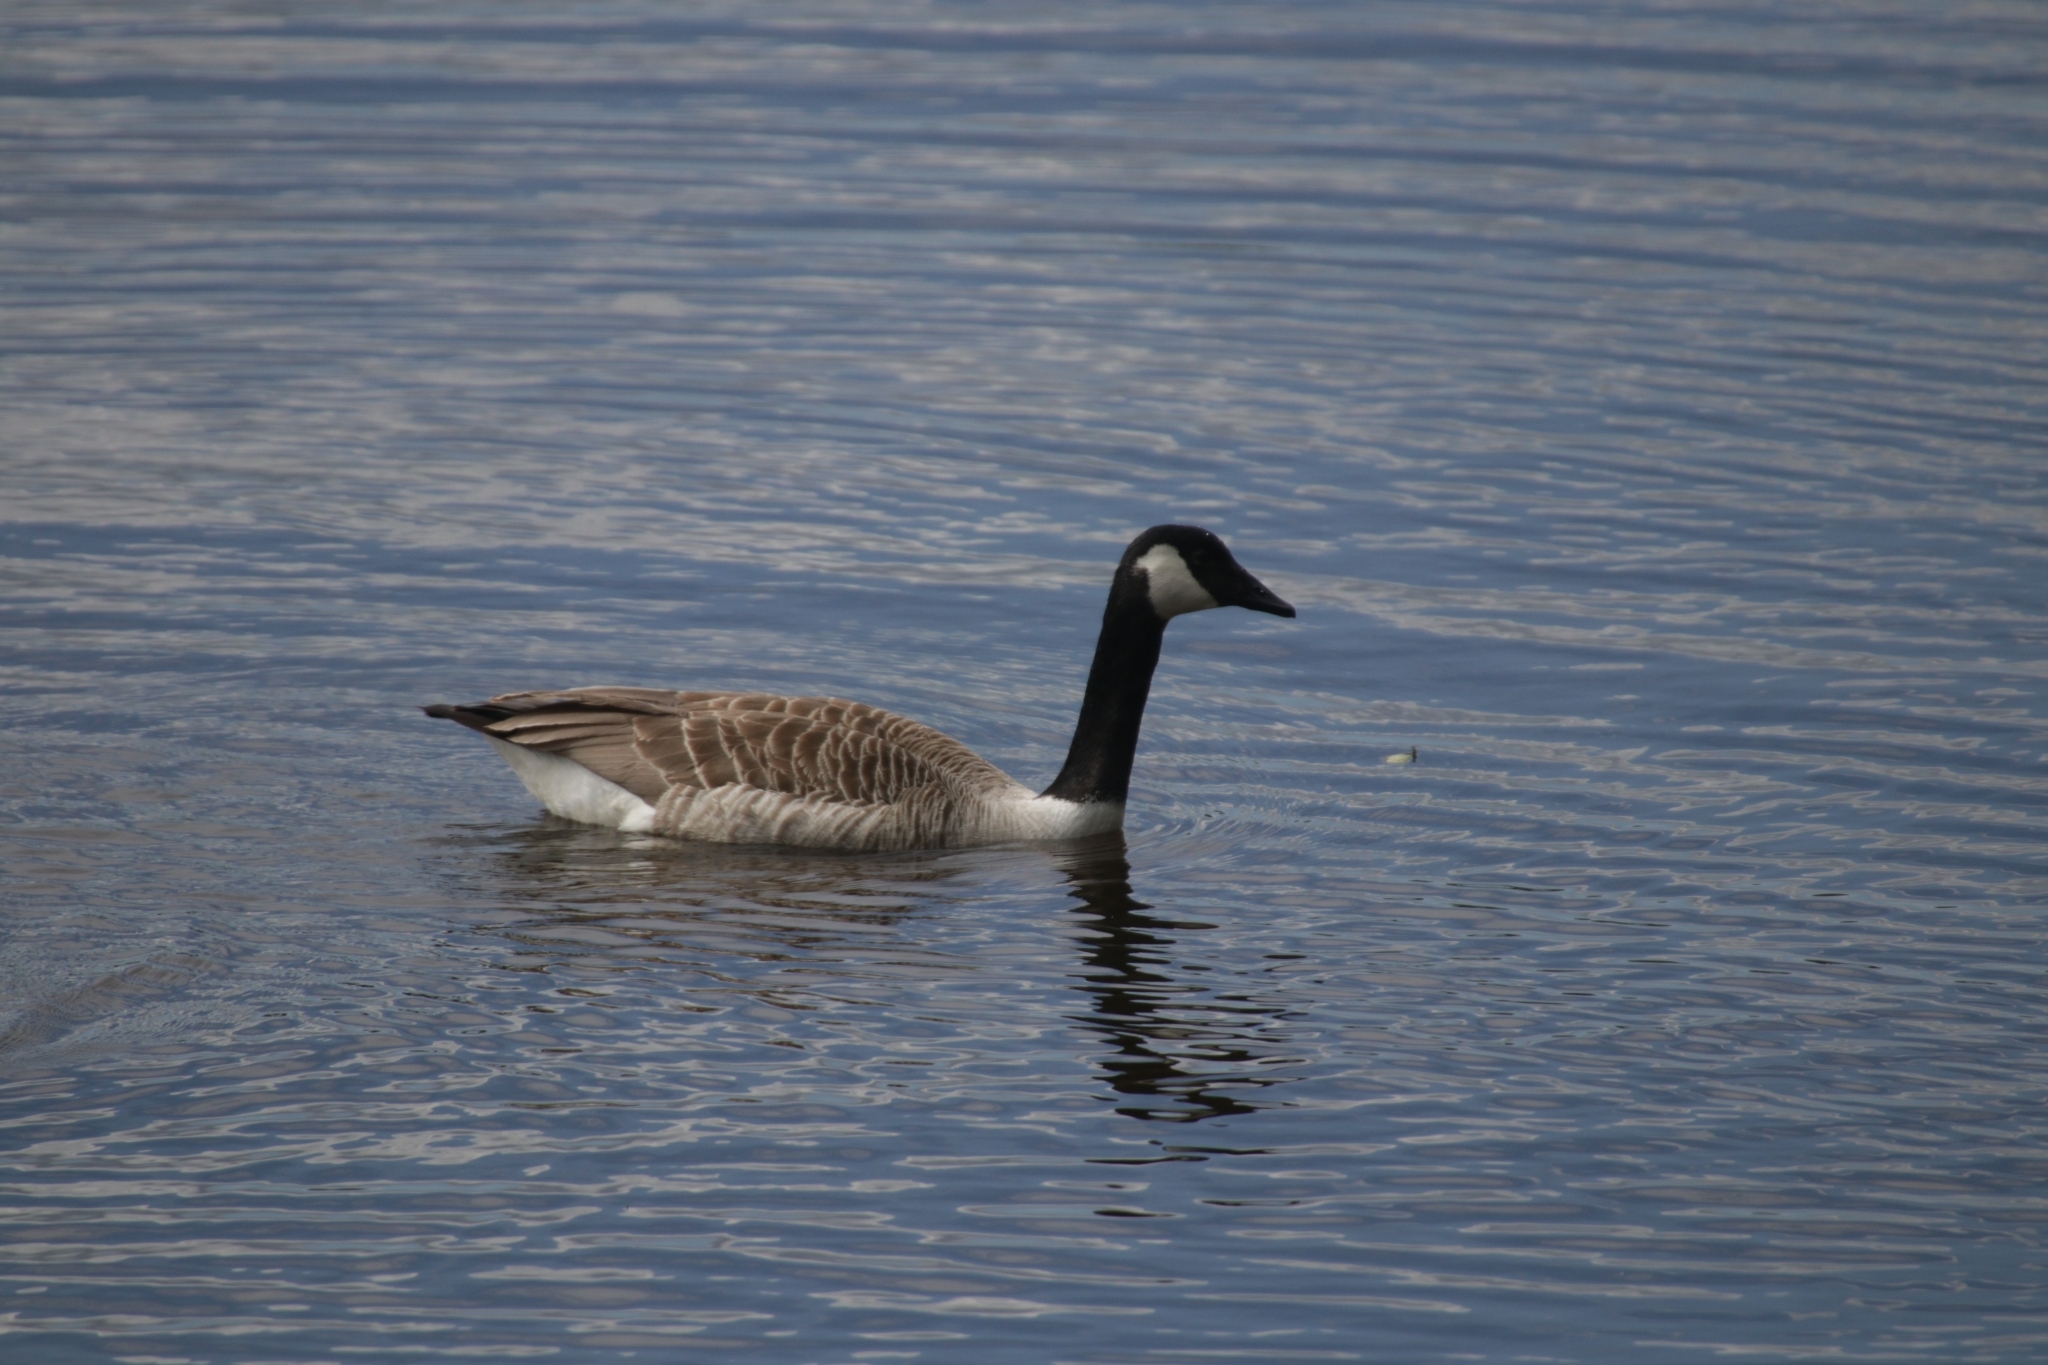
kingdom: Animalia
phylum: Chordata
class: Aves
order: Anseriformes
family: Anatidae
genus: Branta
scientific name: Branta canadensis
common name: Canada goose
